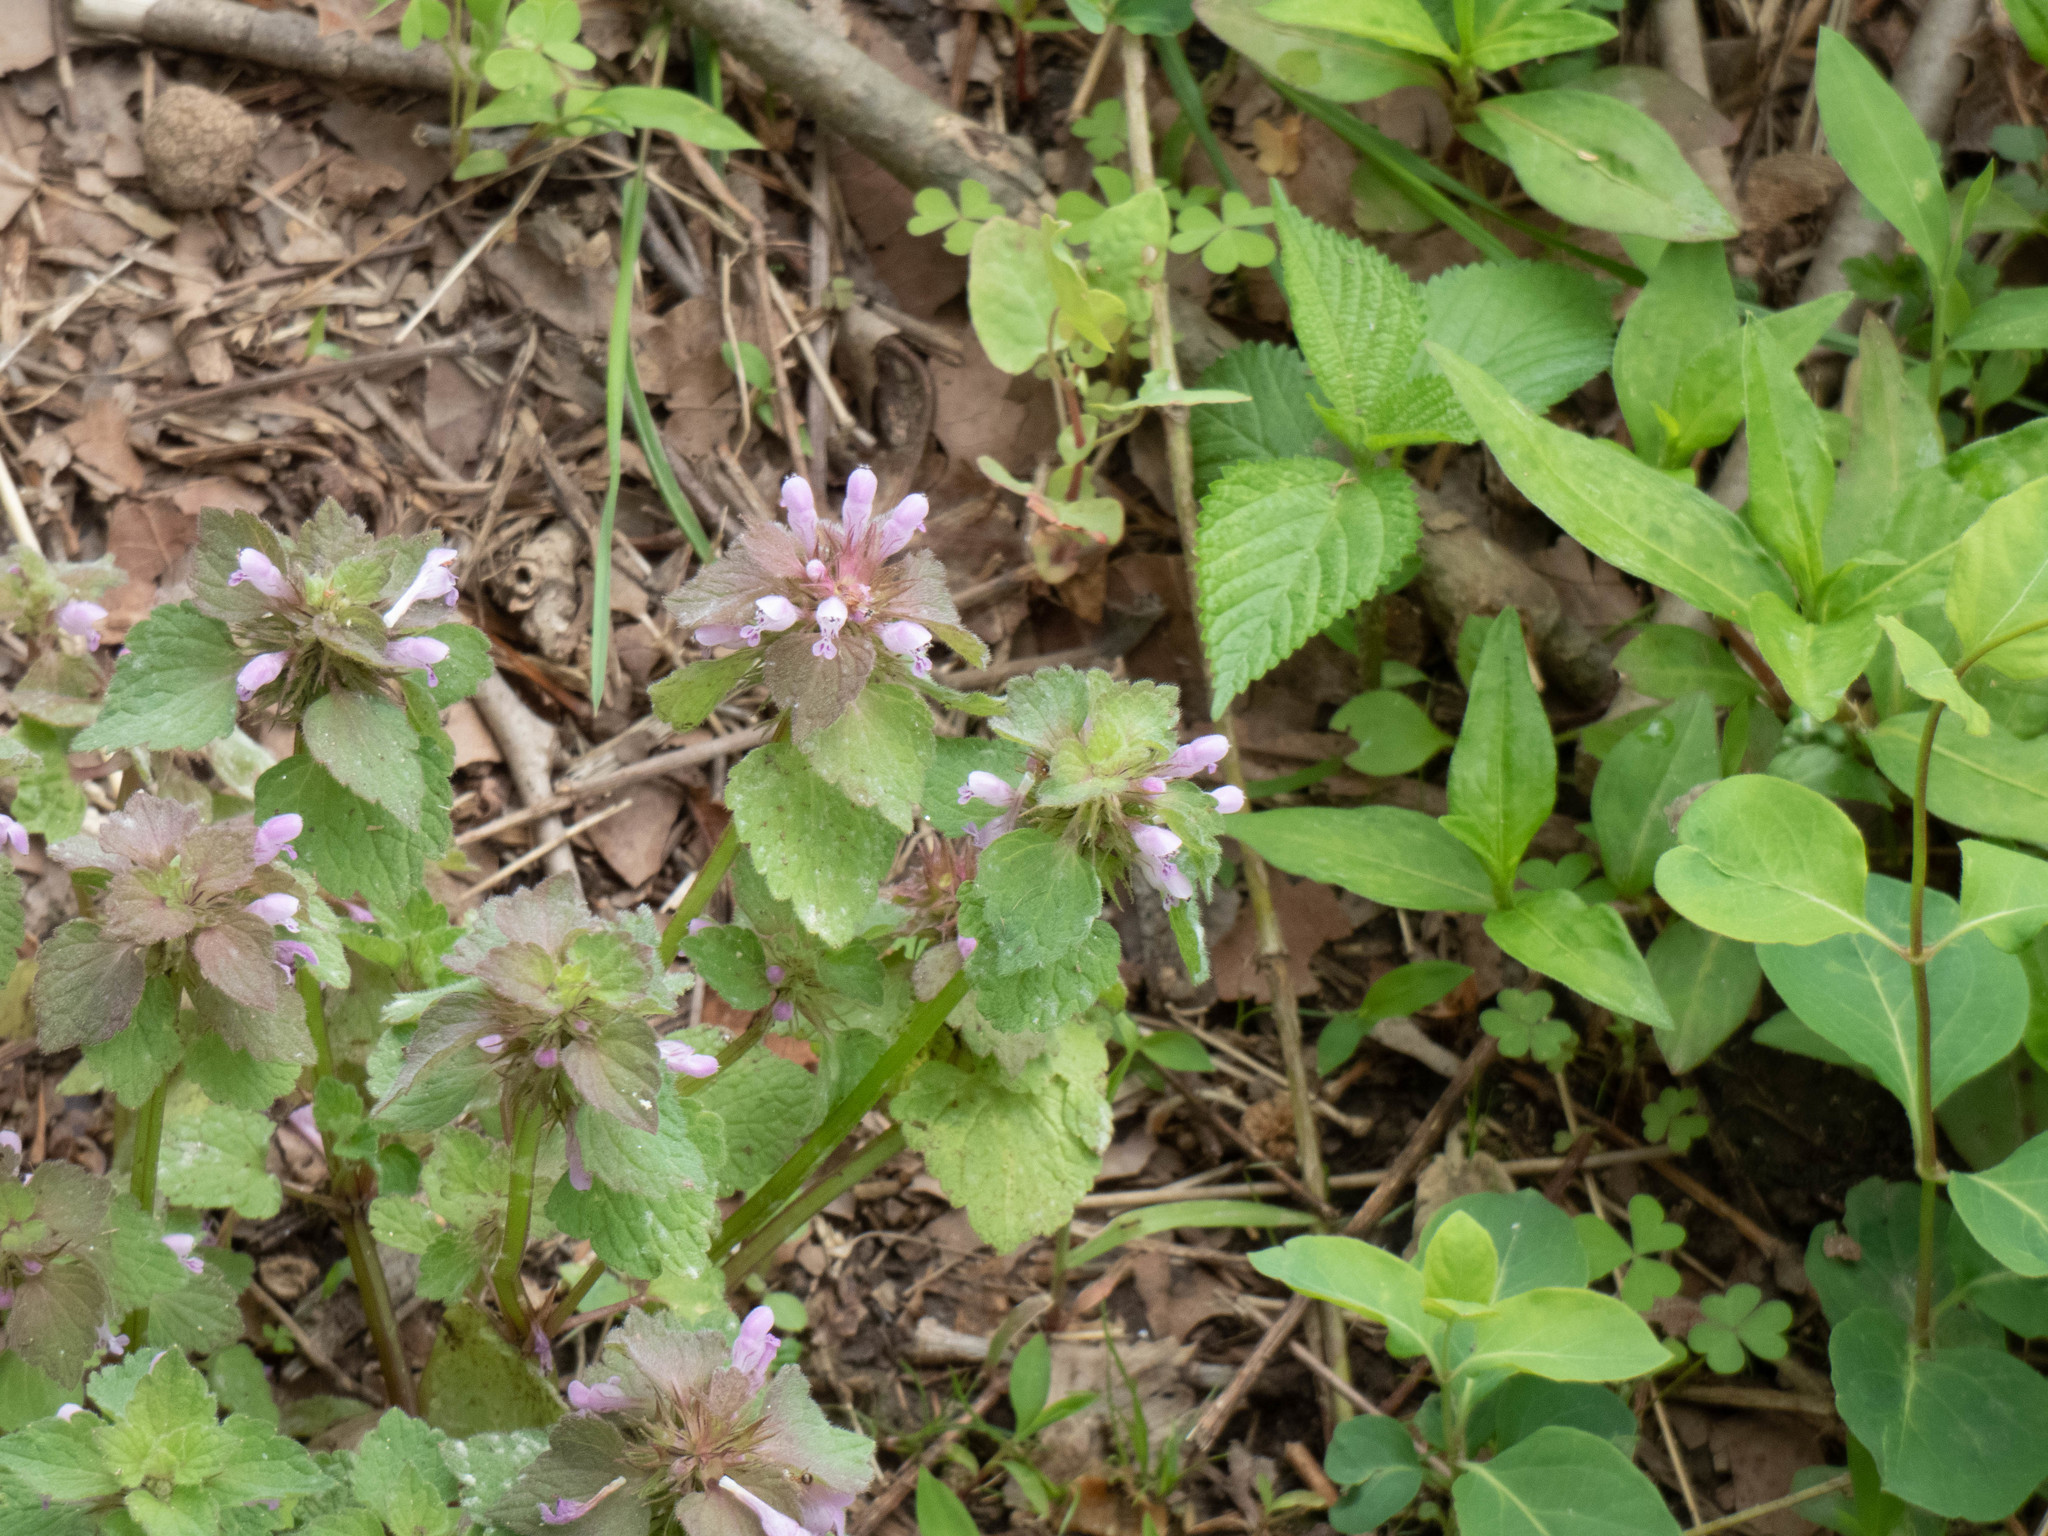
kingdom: Plantae
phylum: Tracheophyta
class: Magnoliopsida
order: Lamiales
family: Lamiaceae
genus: Lamium
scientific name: Lamium purpureum
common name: Red dead-nettle
